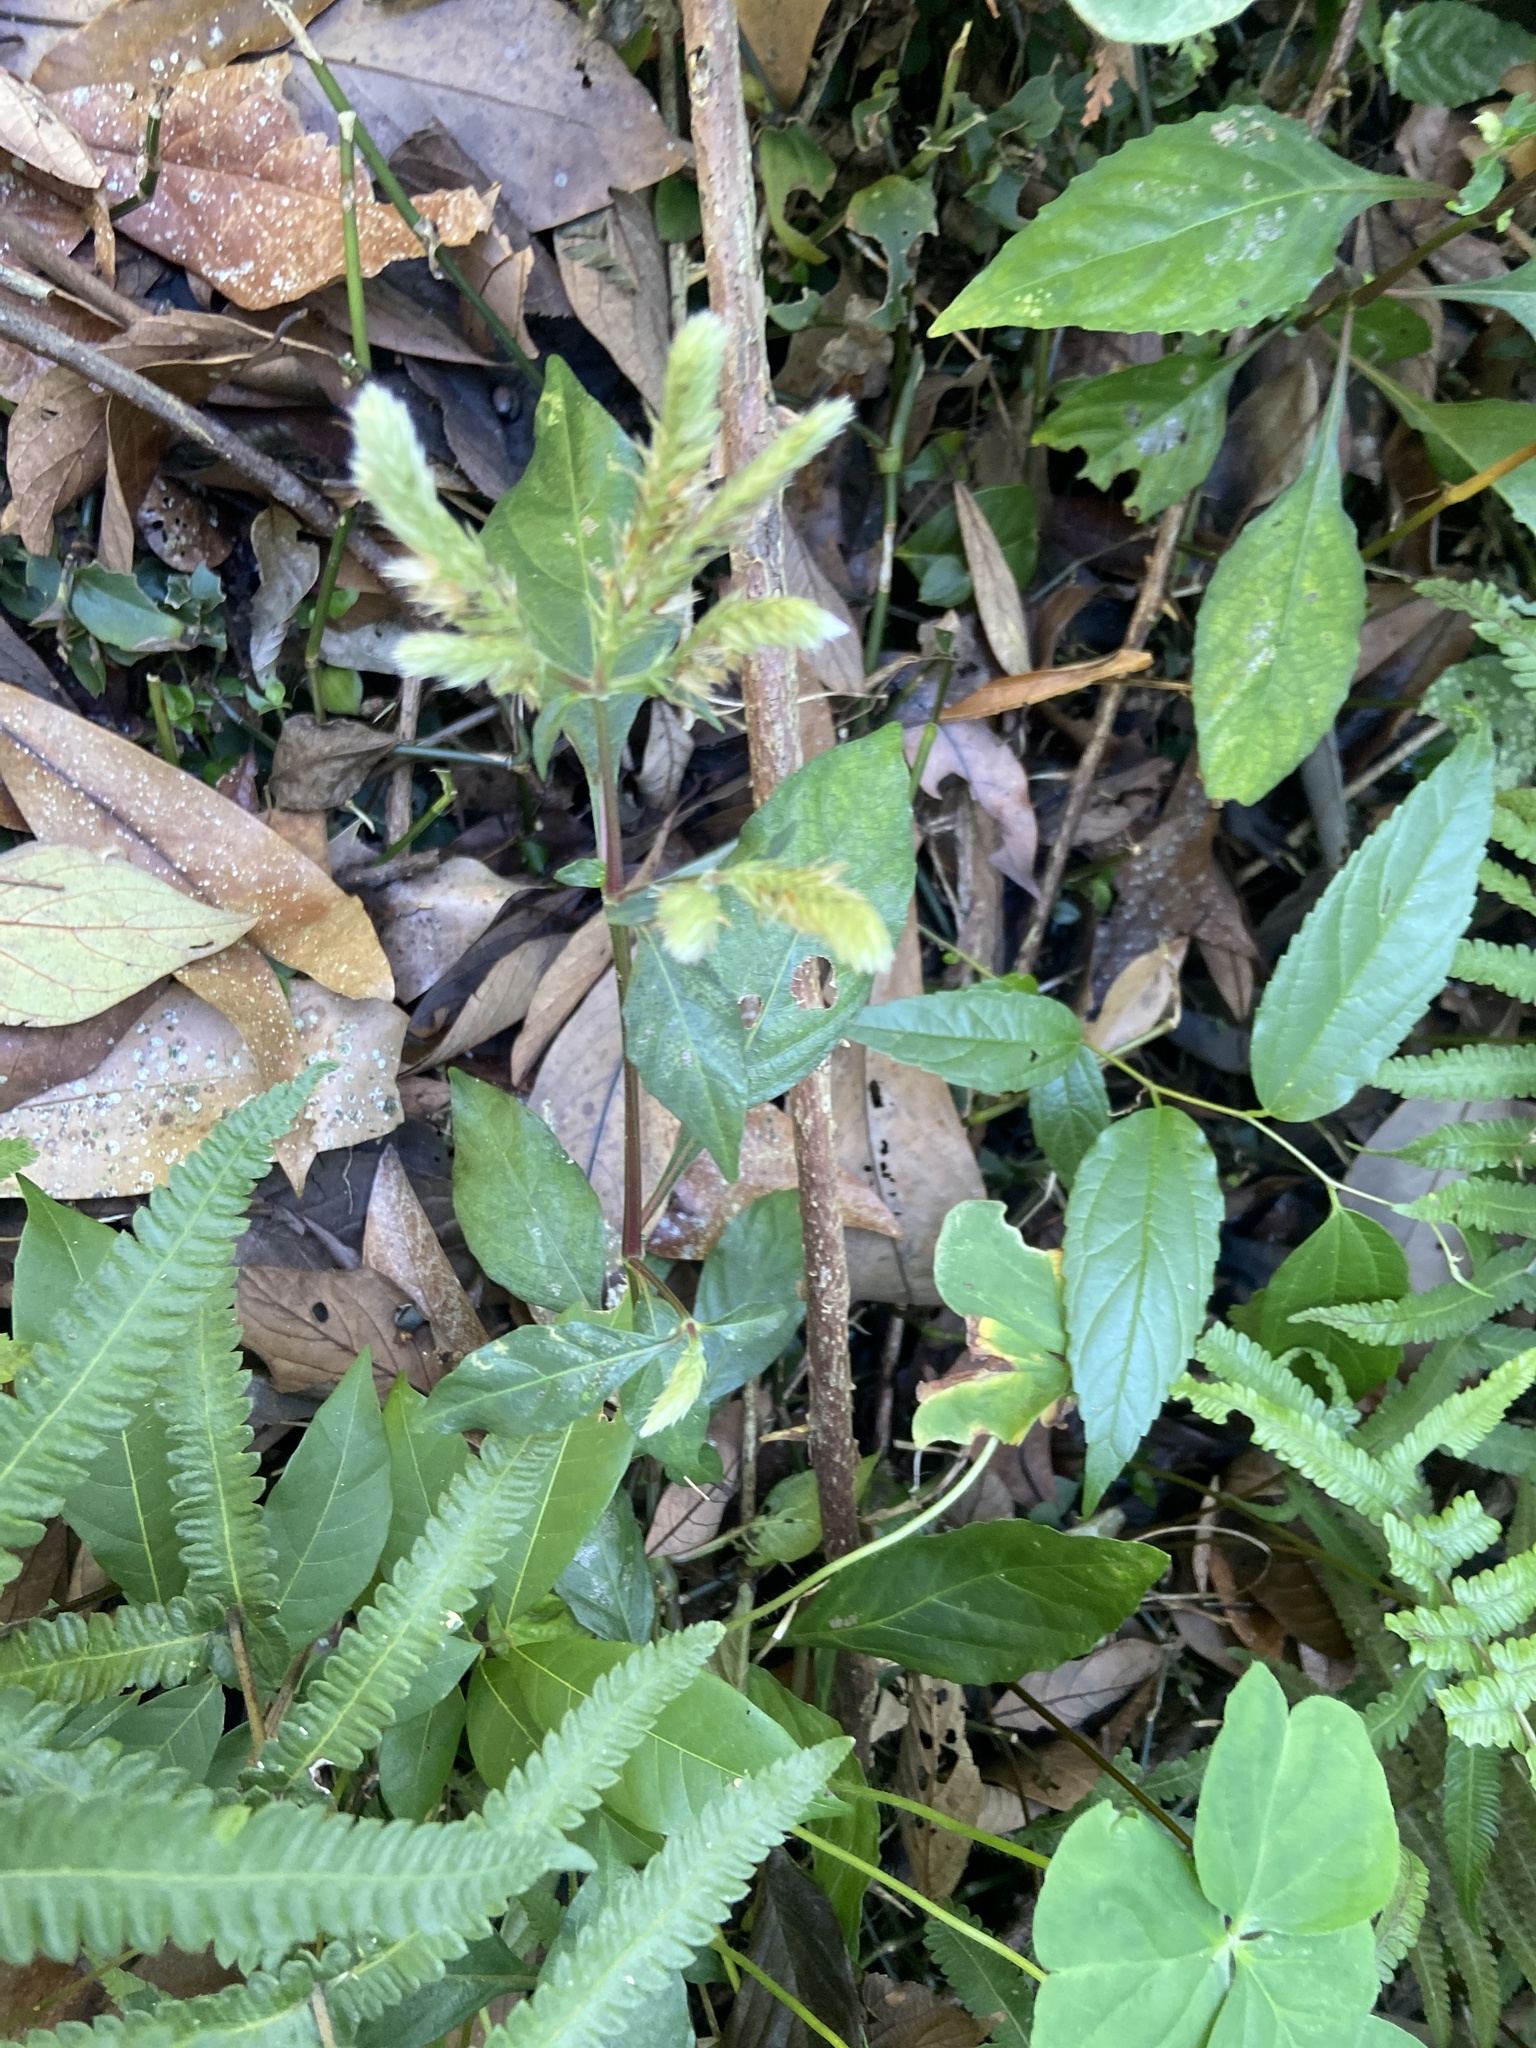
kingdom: Plantae
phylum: Tracheophyta
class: Magnoliopsida
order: Lamiales
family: Acanthaceae
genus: Lepidagathis
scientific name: Lepidagathis formosensis
